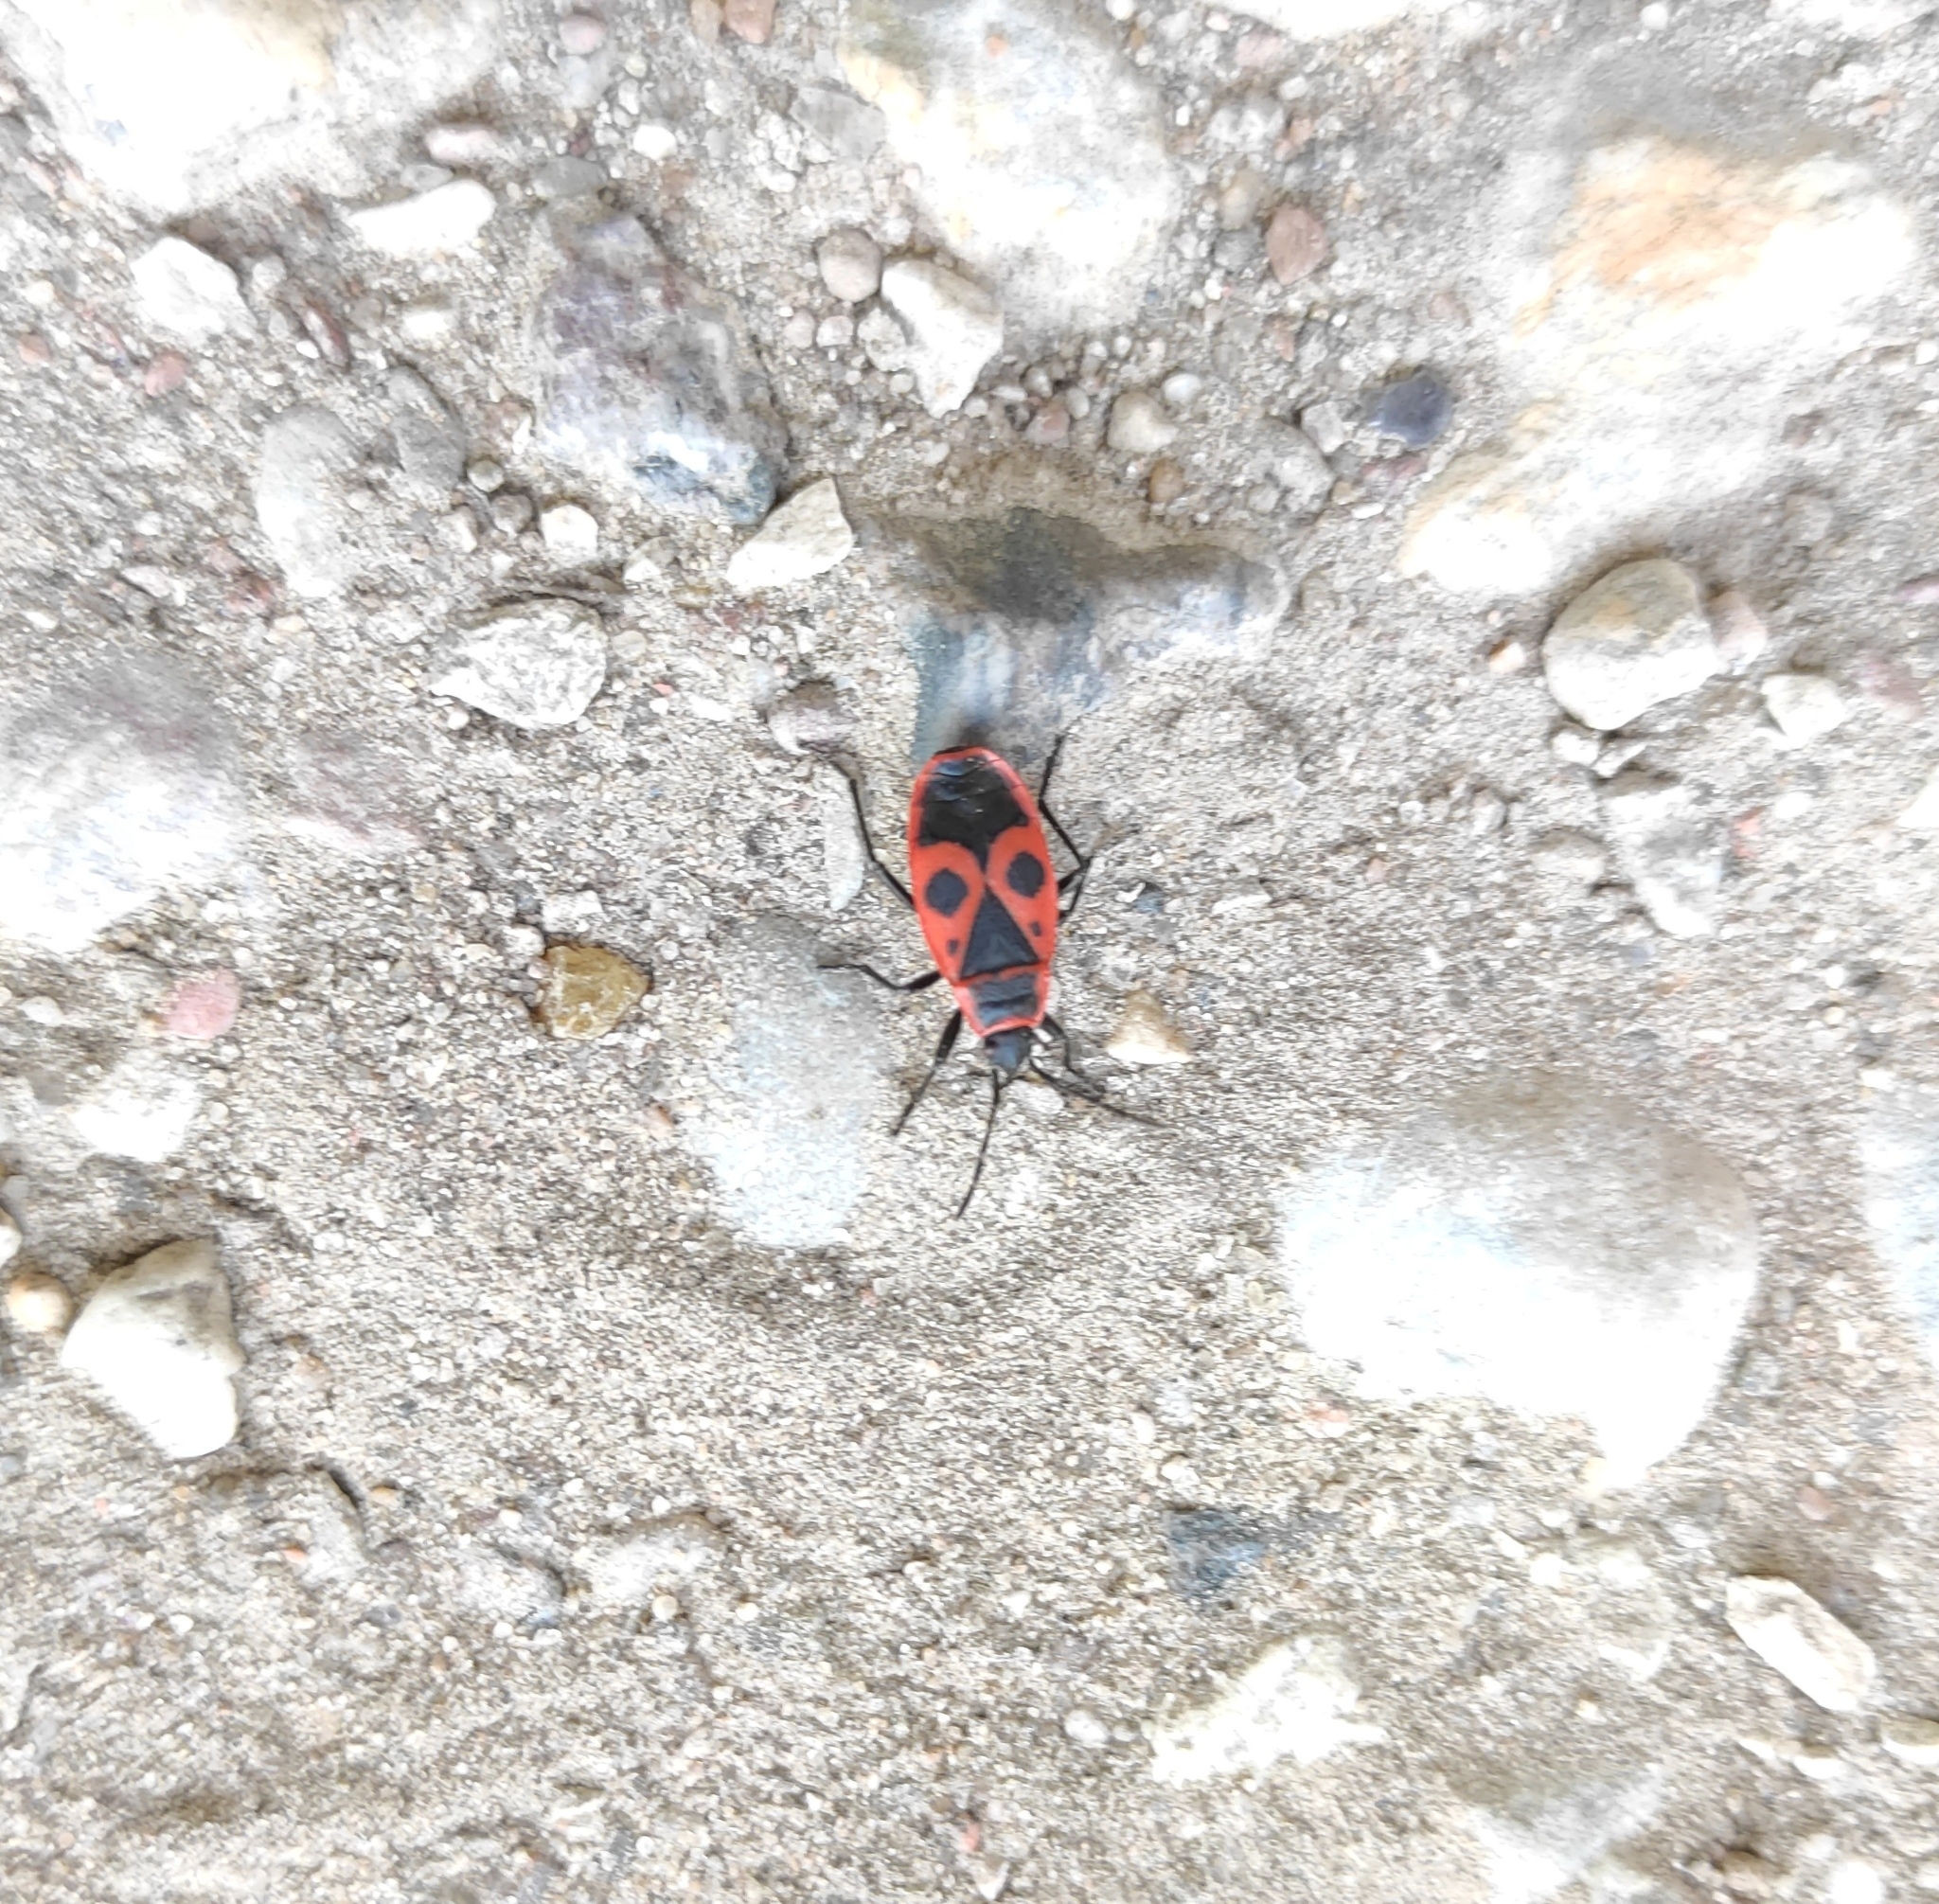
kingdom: Animalia
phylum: Arthropoda
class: Insecta
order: Hemiptera
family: Pyrrhocoridae
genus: Pyrrhocoris
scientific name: Pyrrhocoris apterus
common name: Firebug
